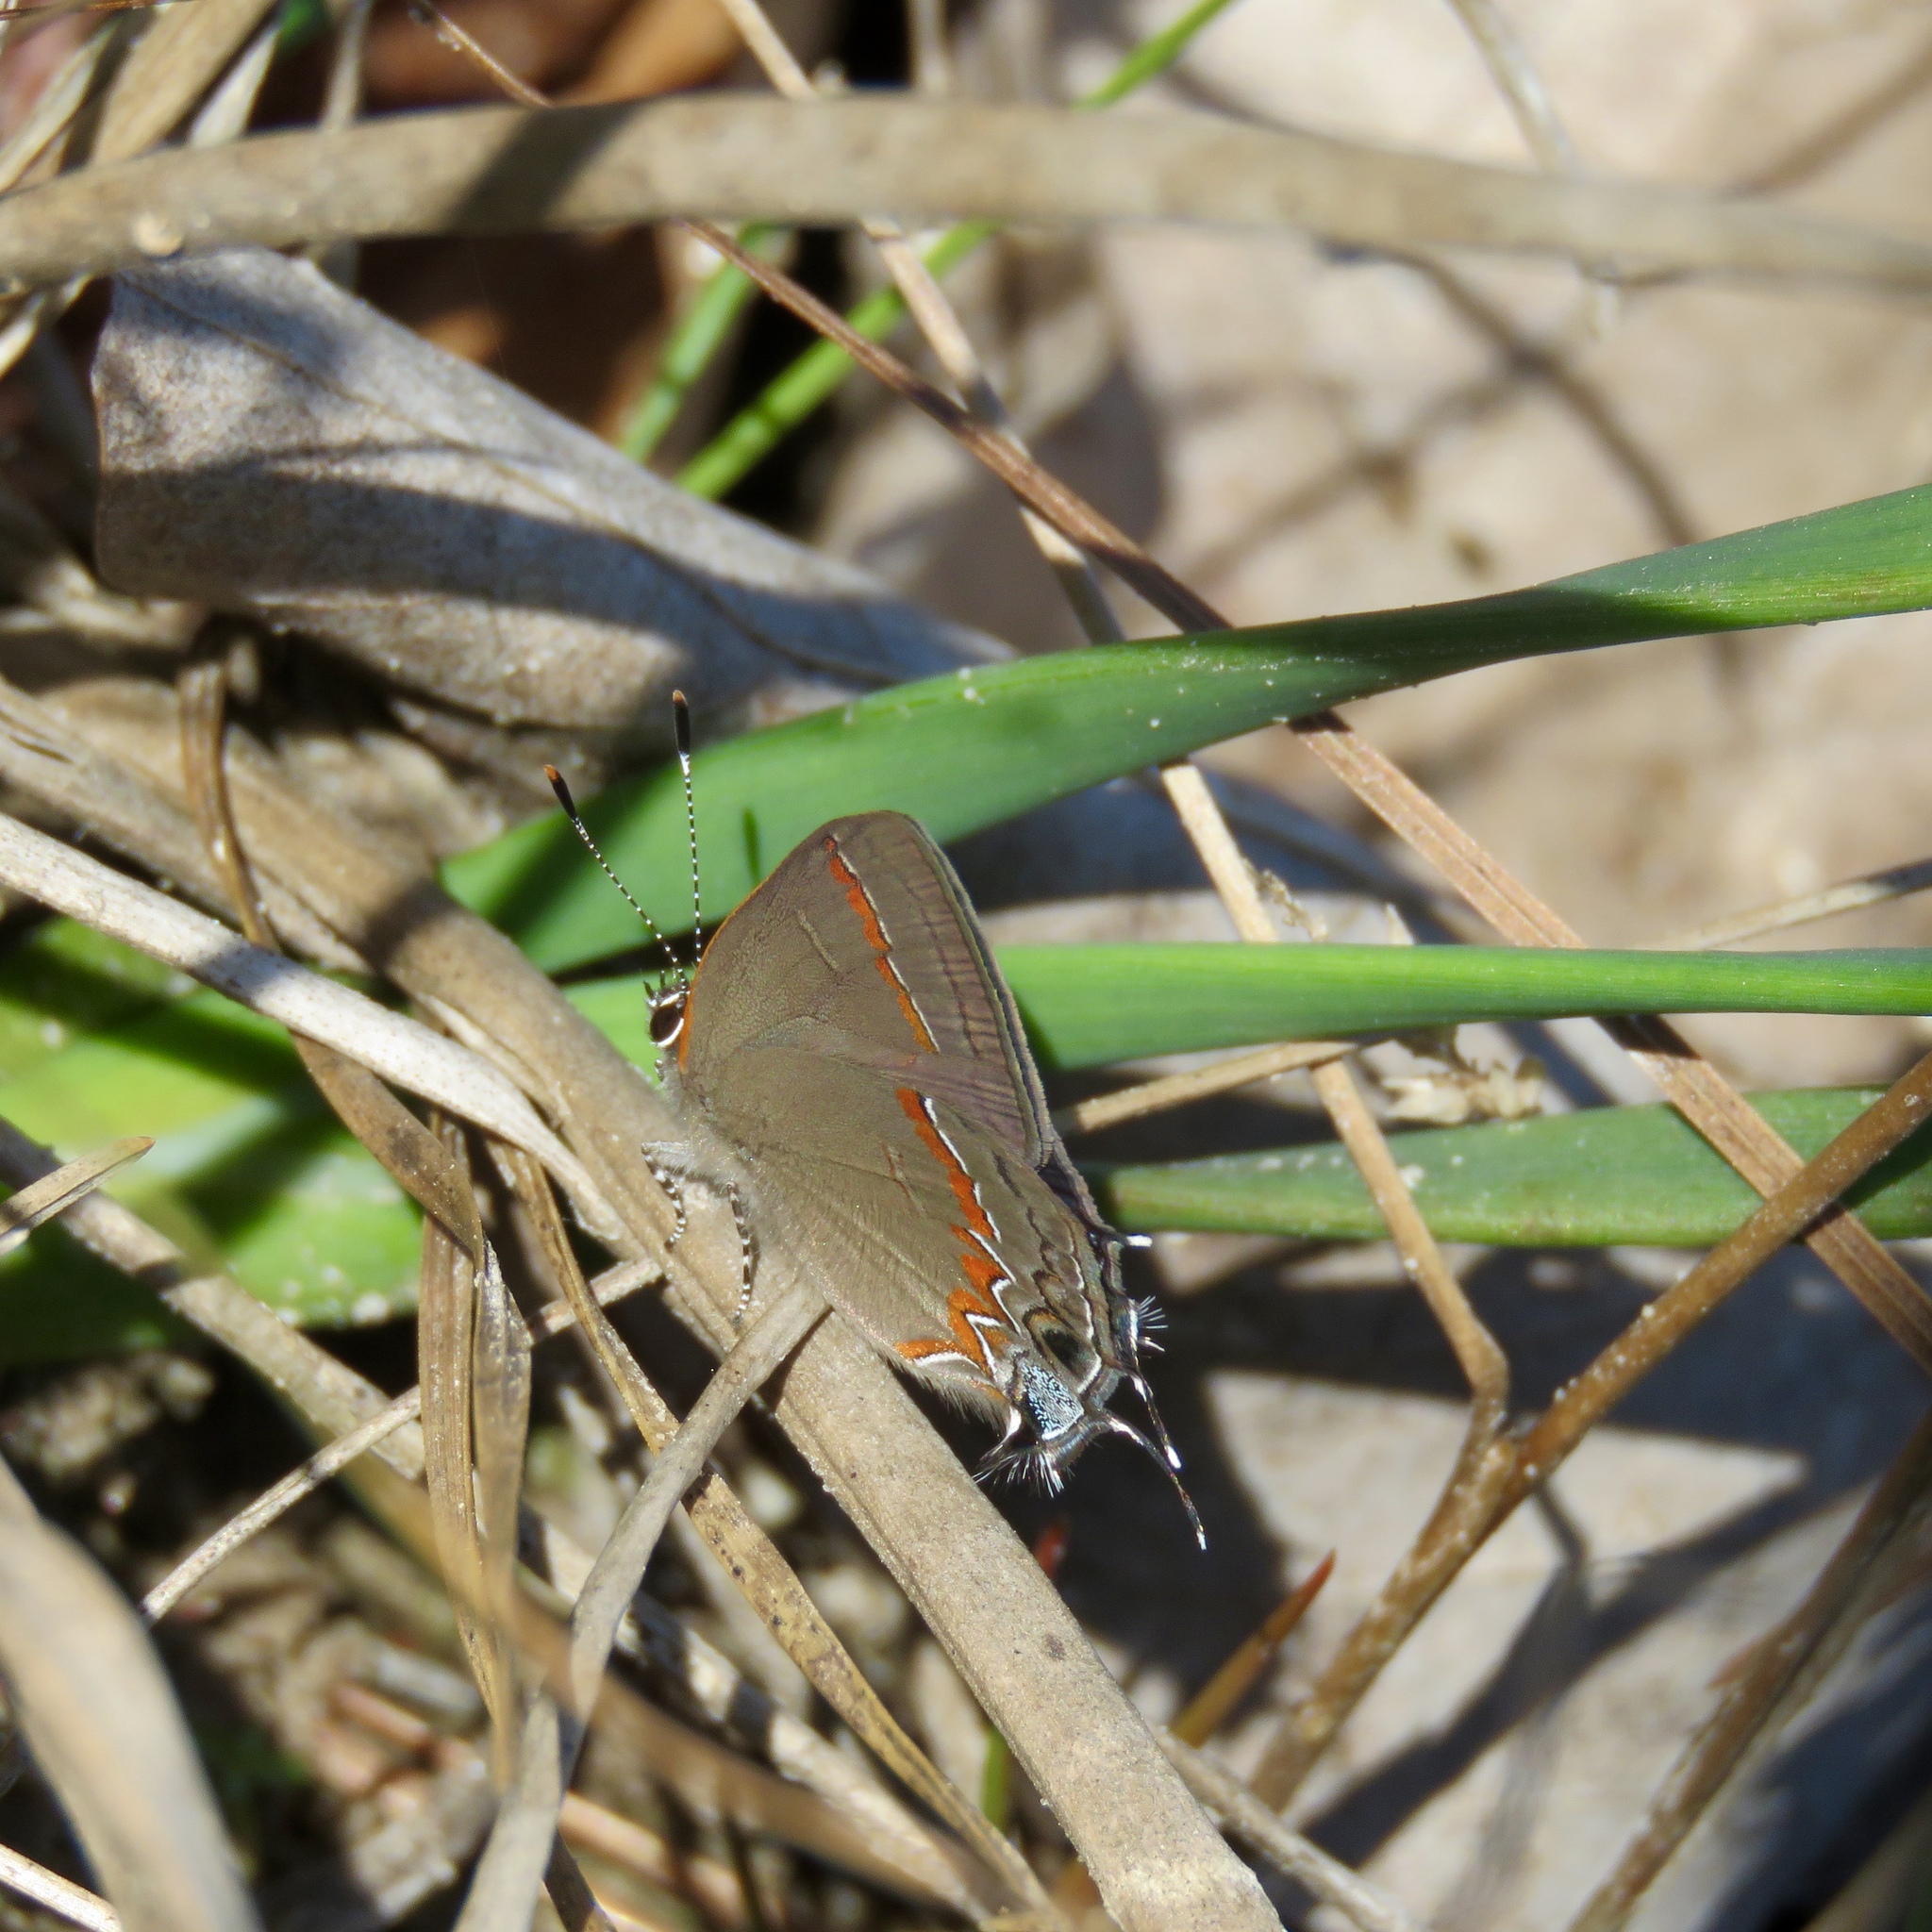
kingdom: Animalia
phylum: Arthropoda
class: Insecta
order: Lepidoptera
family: Lycaenidae
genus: Calycopis
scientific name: Calycopis cecrops
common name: Red-banded hairstreak
